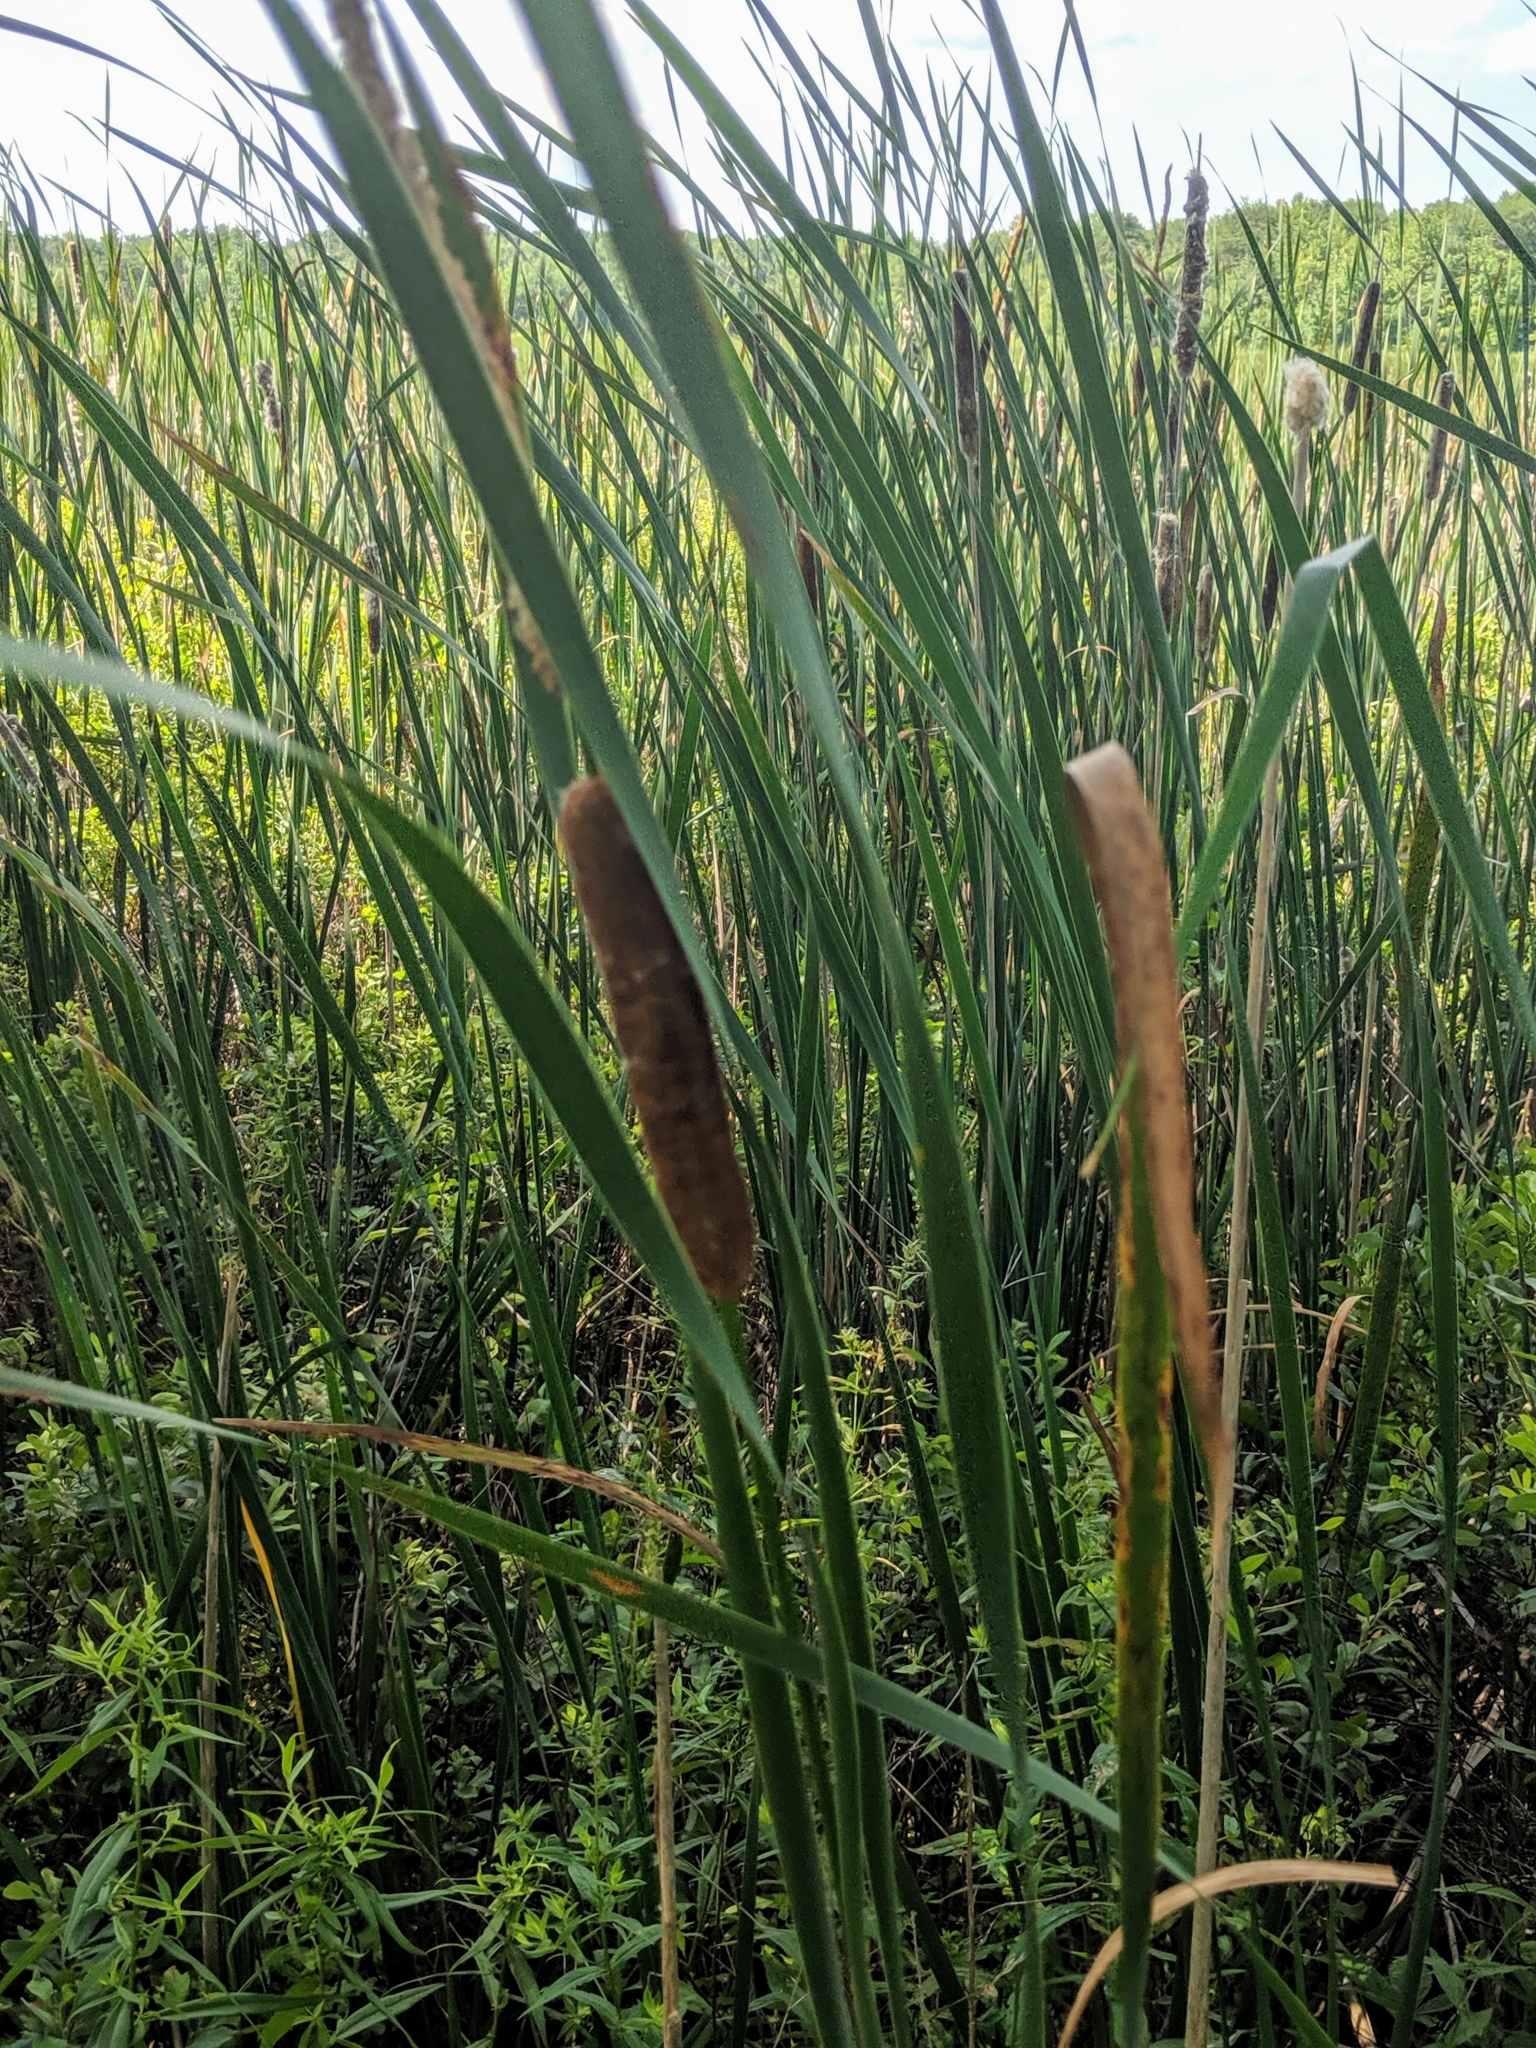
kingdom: Plantae
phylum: Tracheophyta
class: Liliopsida
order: Poales
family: Typhaceae
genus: Typha
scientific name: Typha angustifolia
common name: Lesser bulrush
